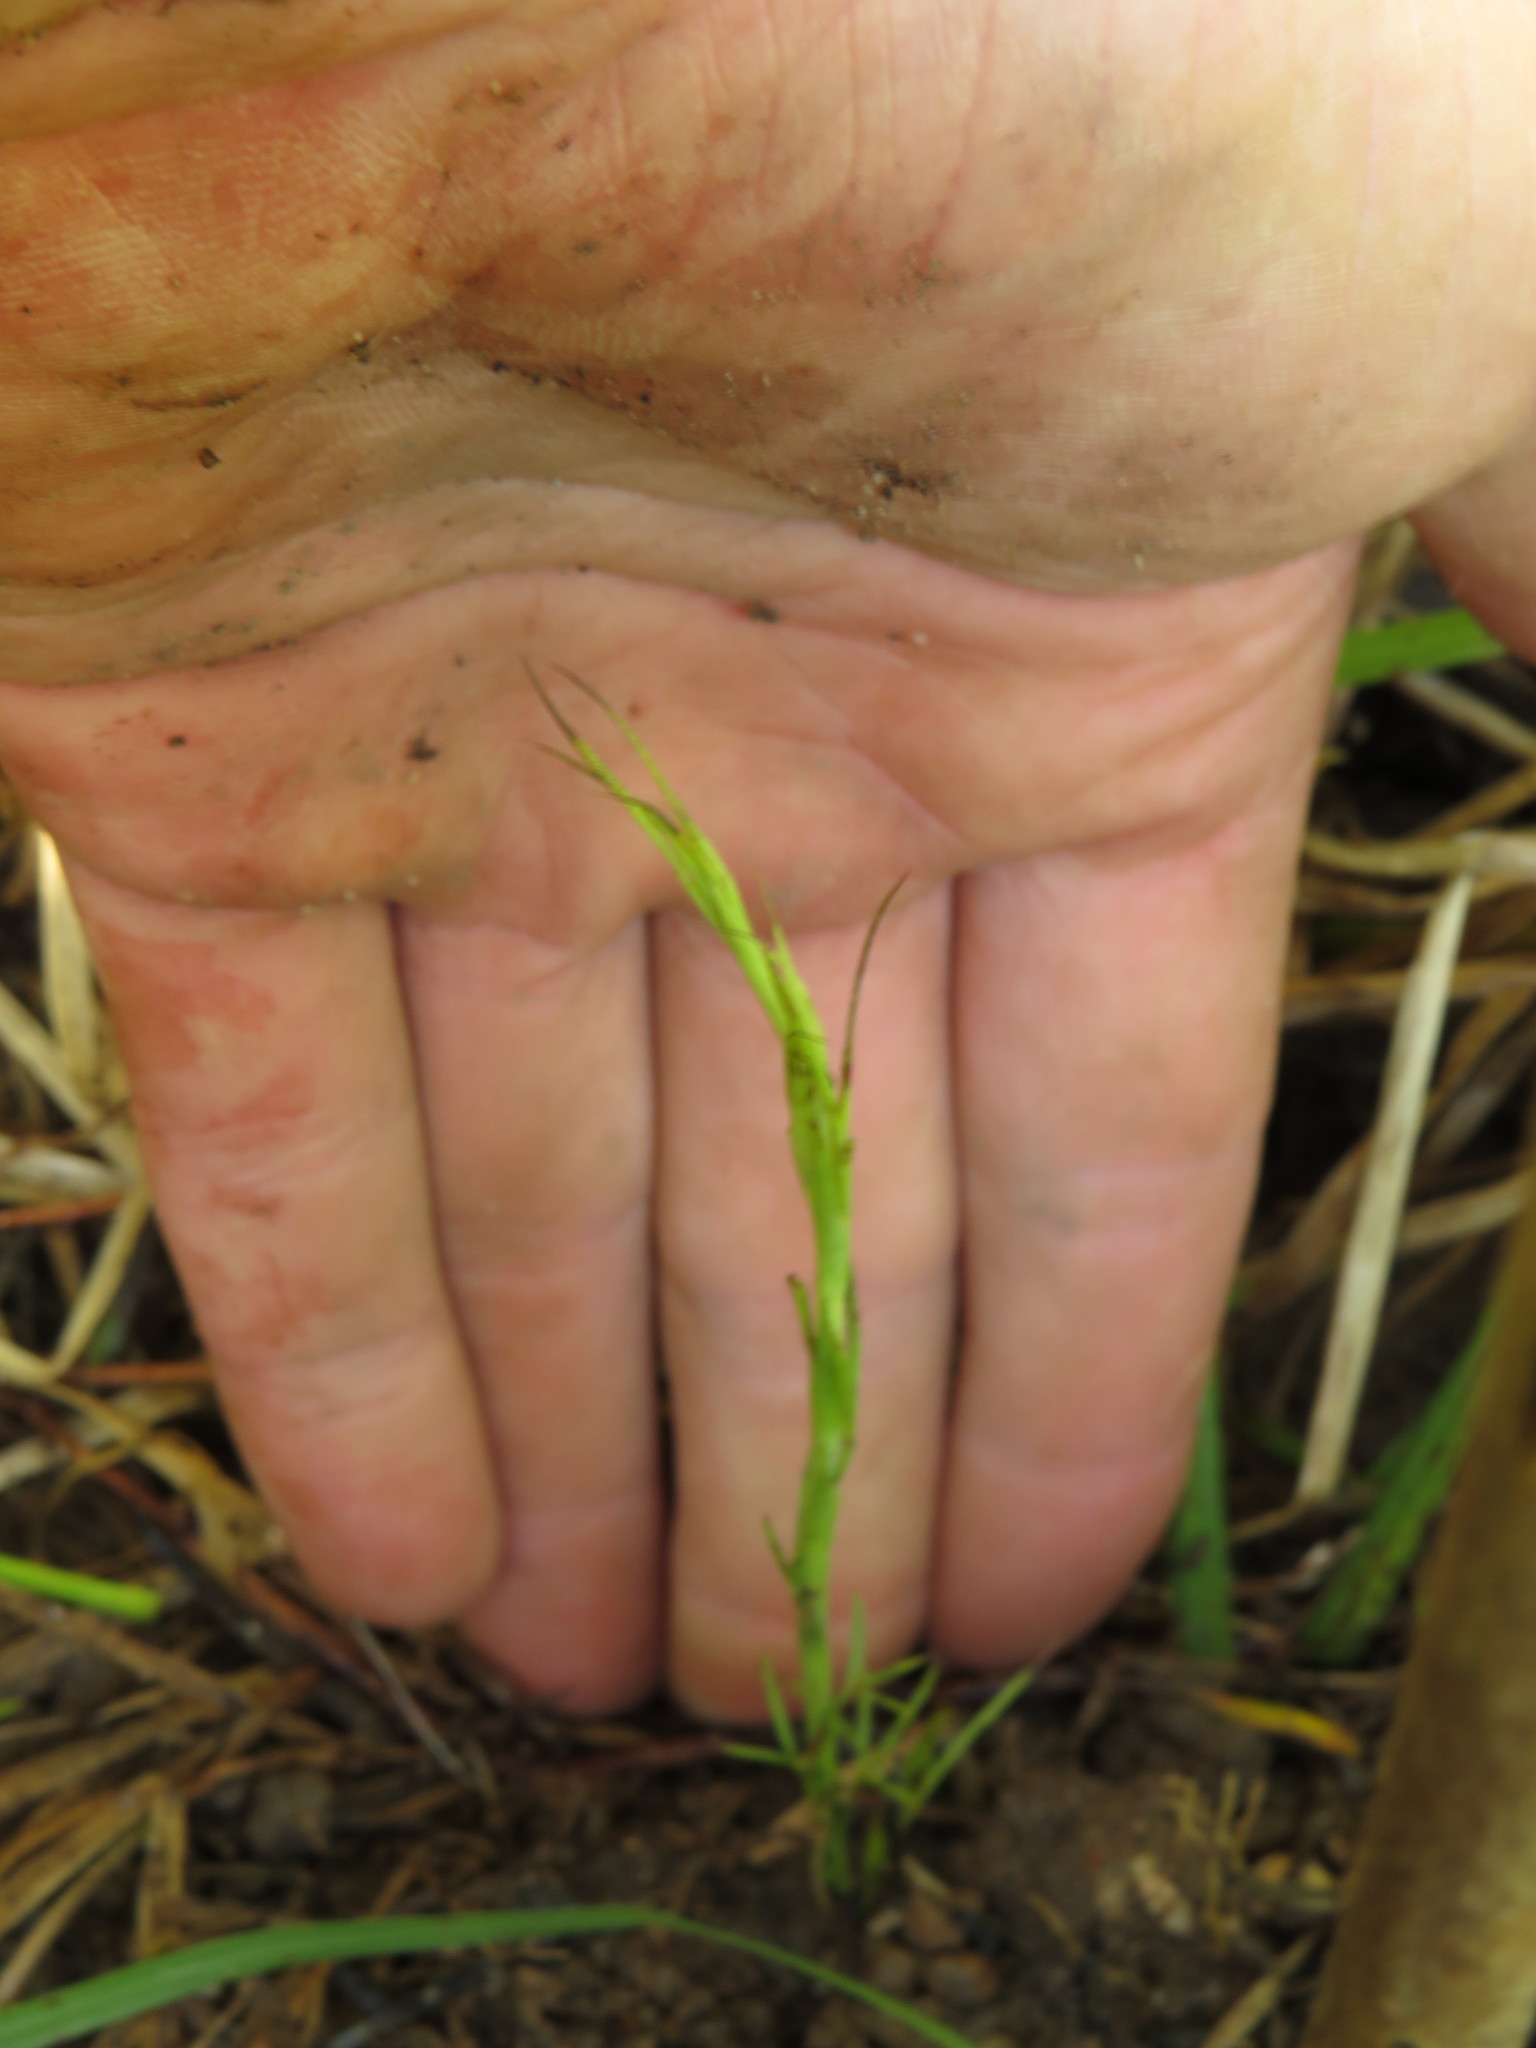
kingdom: Plantae
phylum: Tracheophyta
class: Magnoliopsida
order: Fabales
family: Fabaceae
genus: Psoralea
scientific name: Psoralea fascicularis
